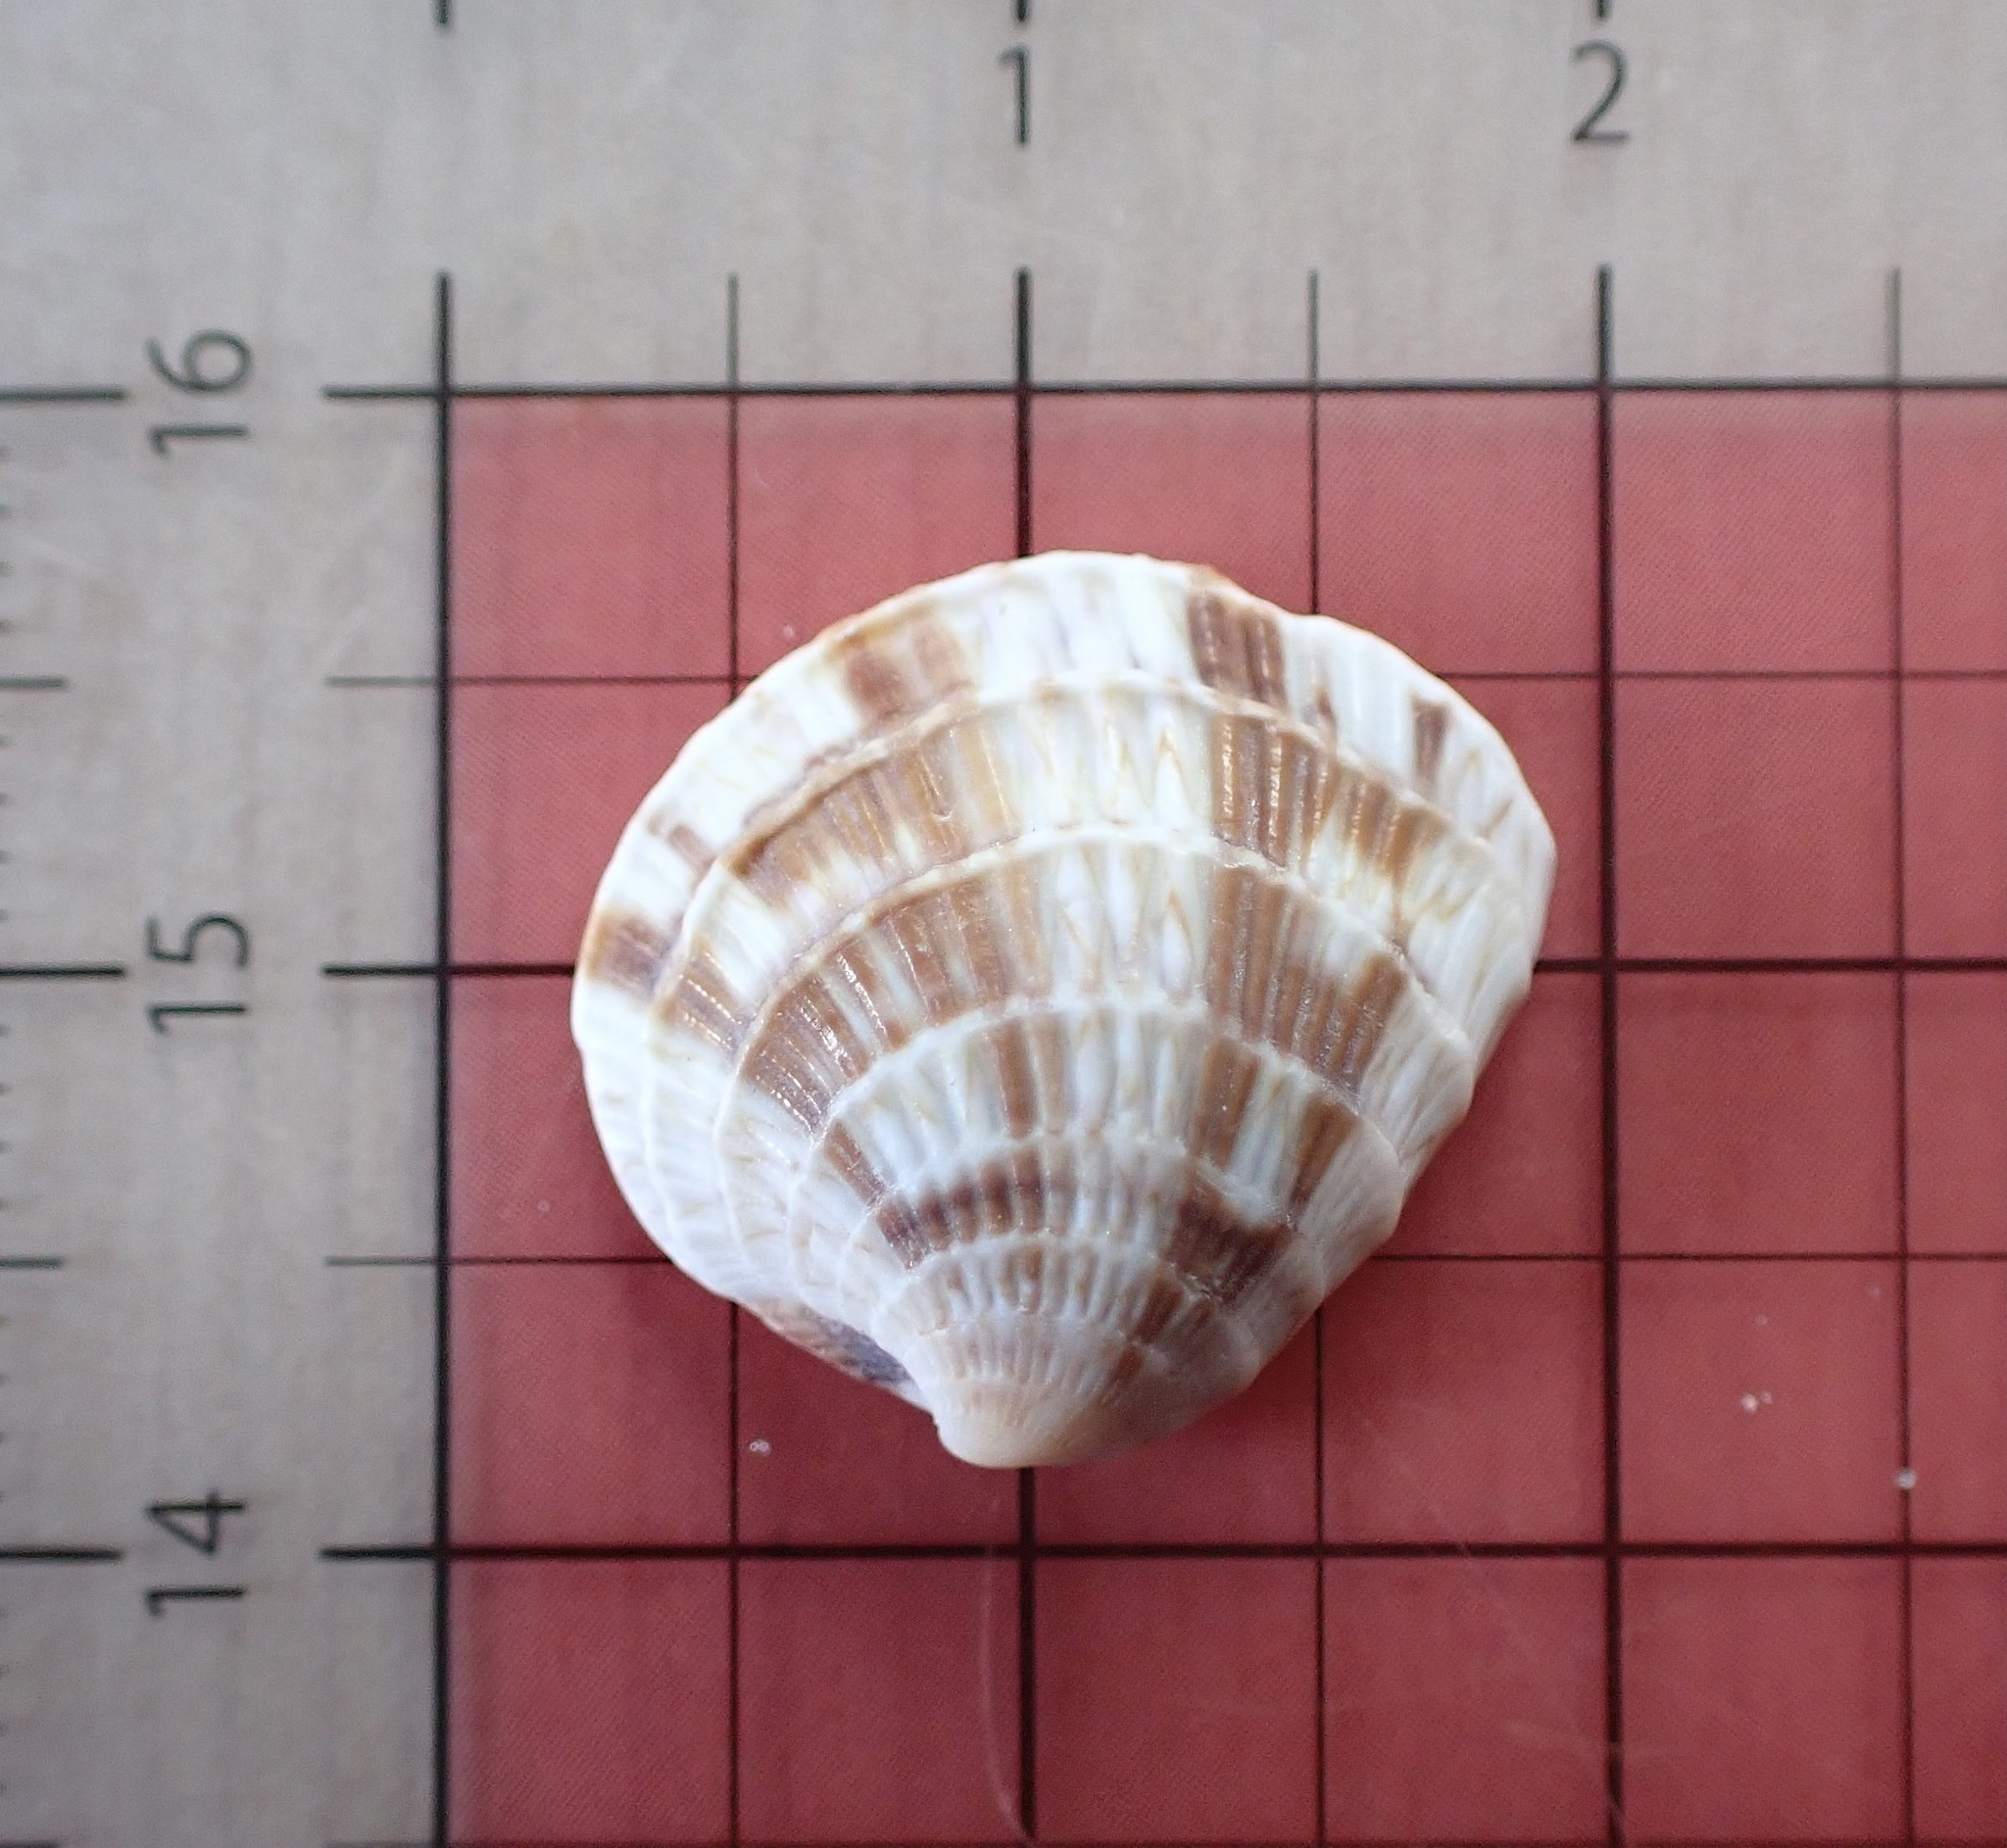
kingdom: Animalia
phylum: Mollusca
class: Bivalvia
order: Venerida
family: Veneridae
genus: Chione
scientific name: Chione elevata
